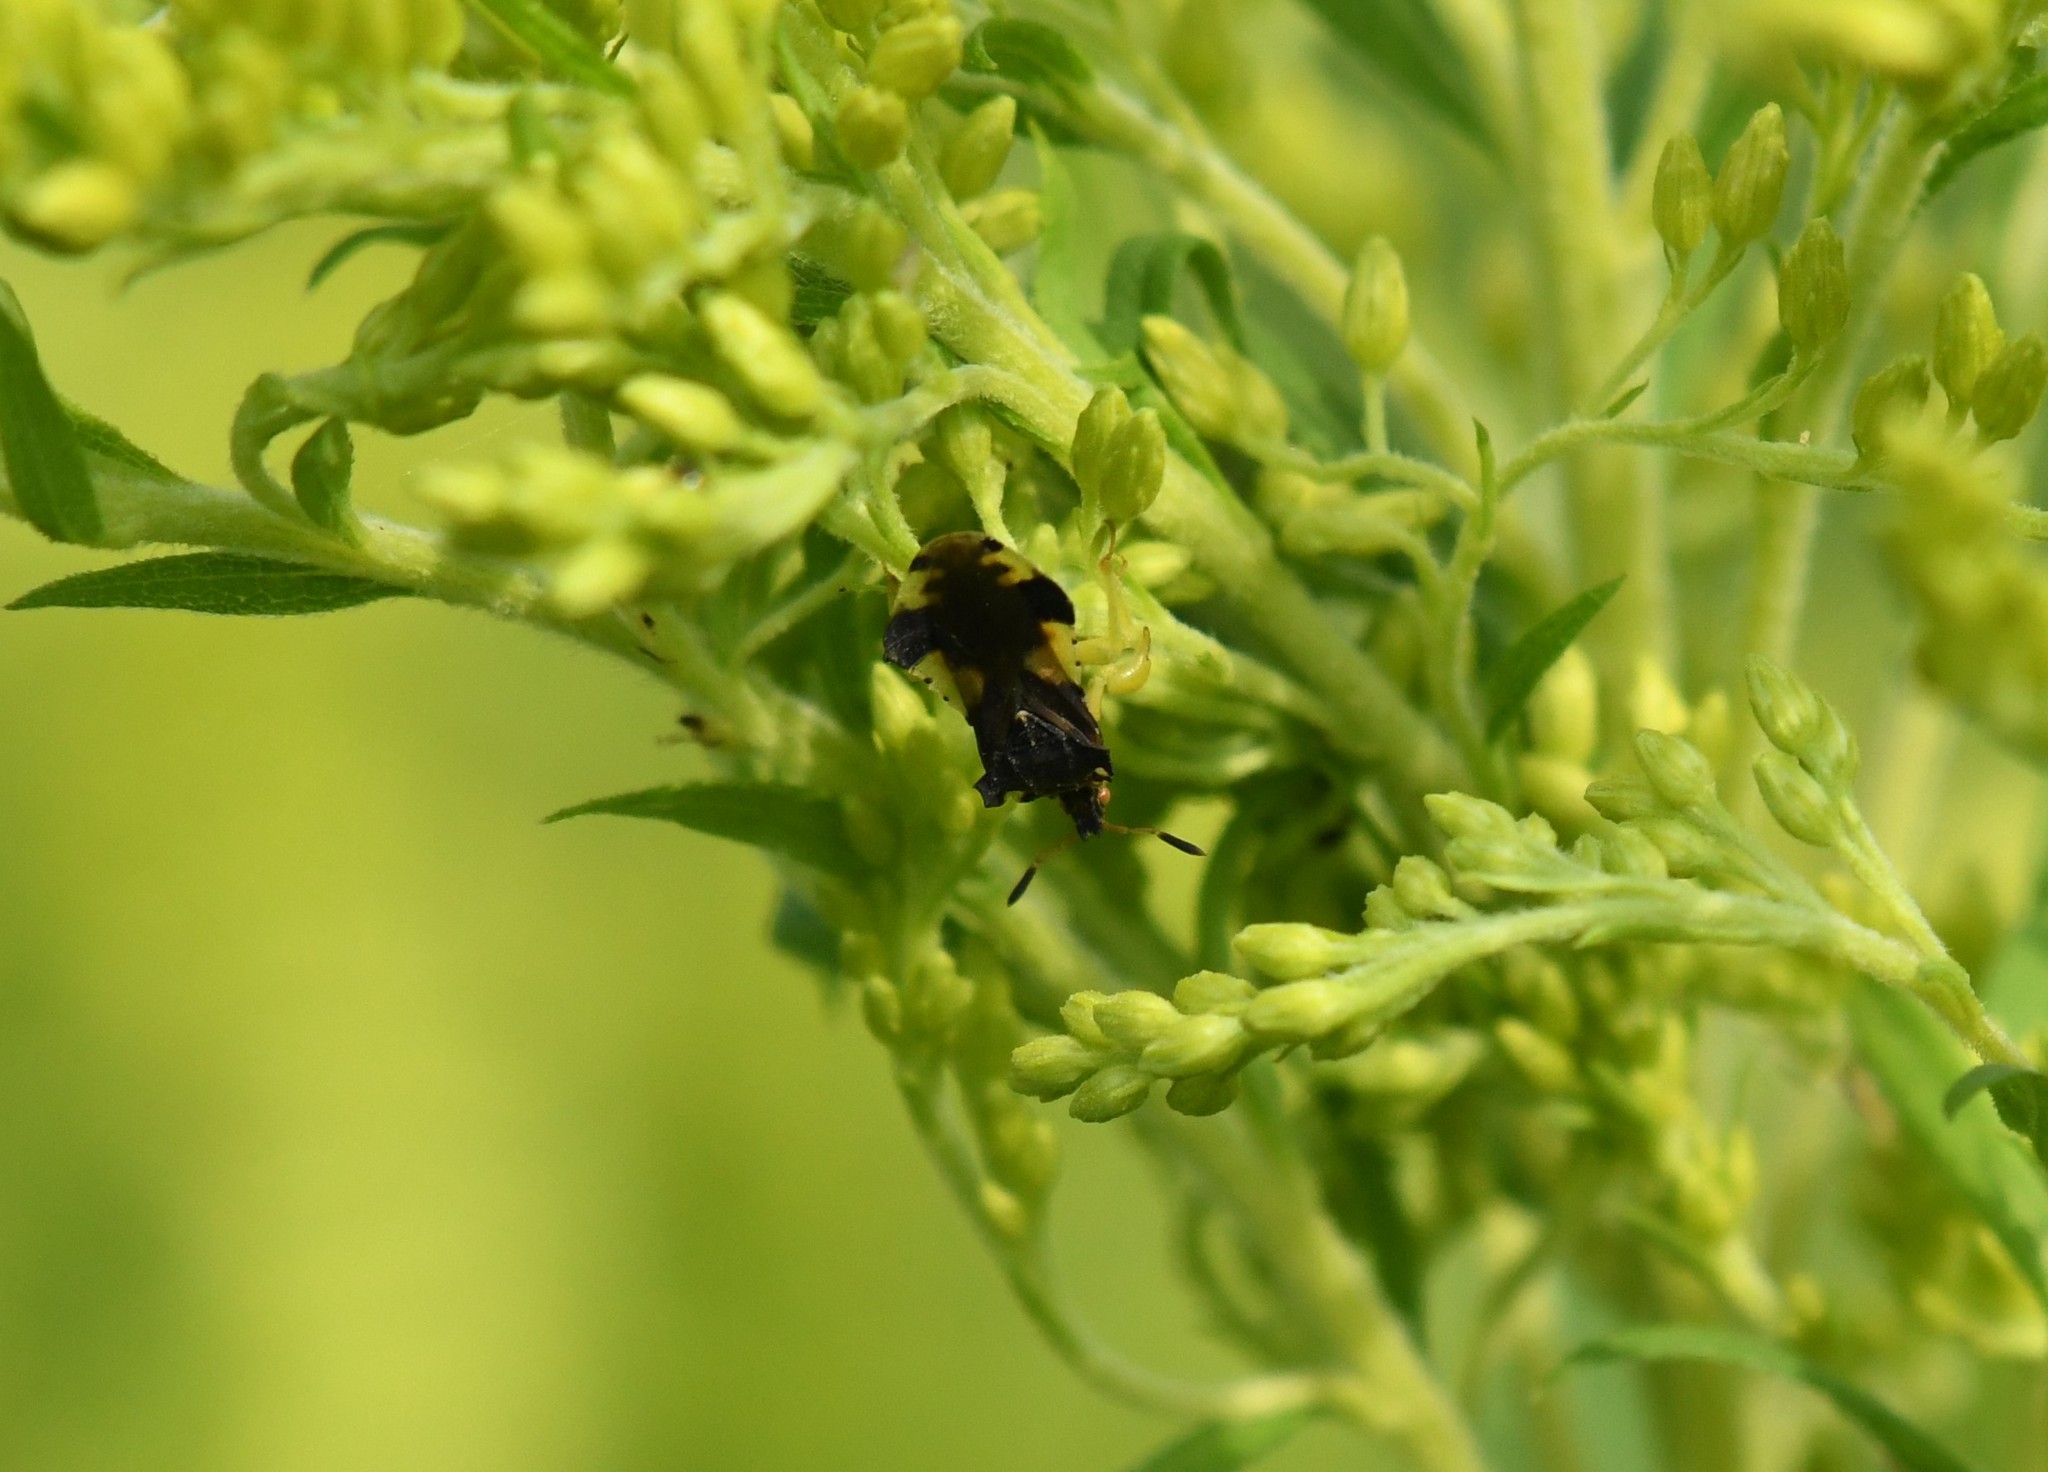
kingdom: Animalia
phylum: Arthropoda
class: Insecta
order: Hemiptera
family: Reduviidae
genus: Phymata
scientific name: Phymata americana
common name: Jagged ambush bug
